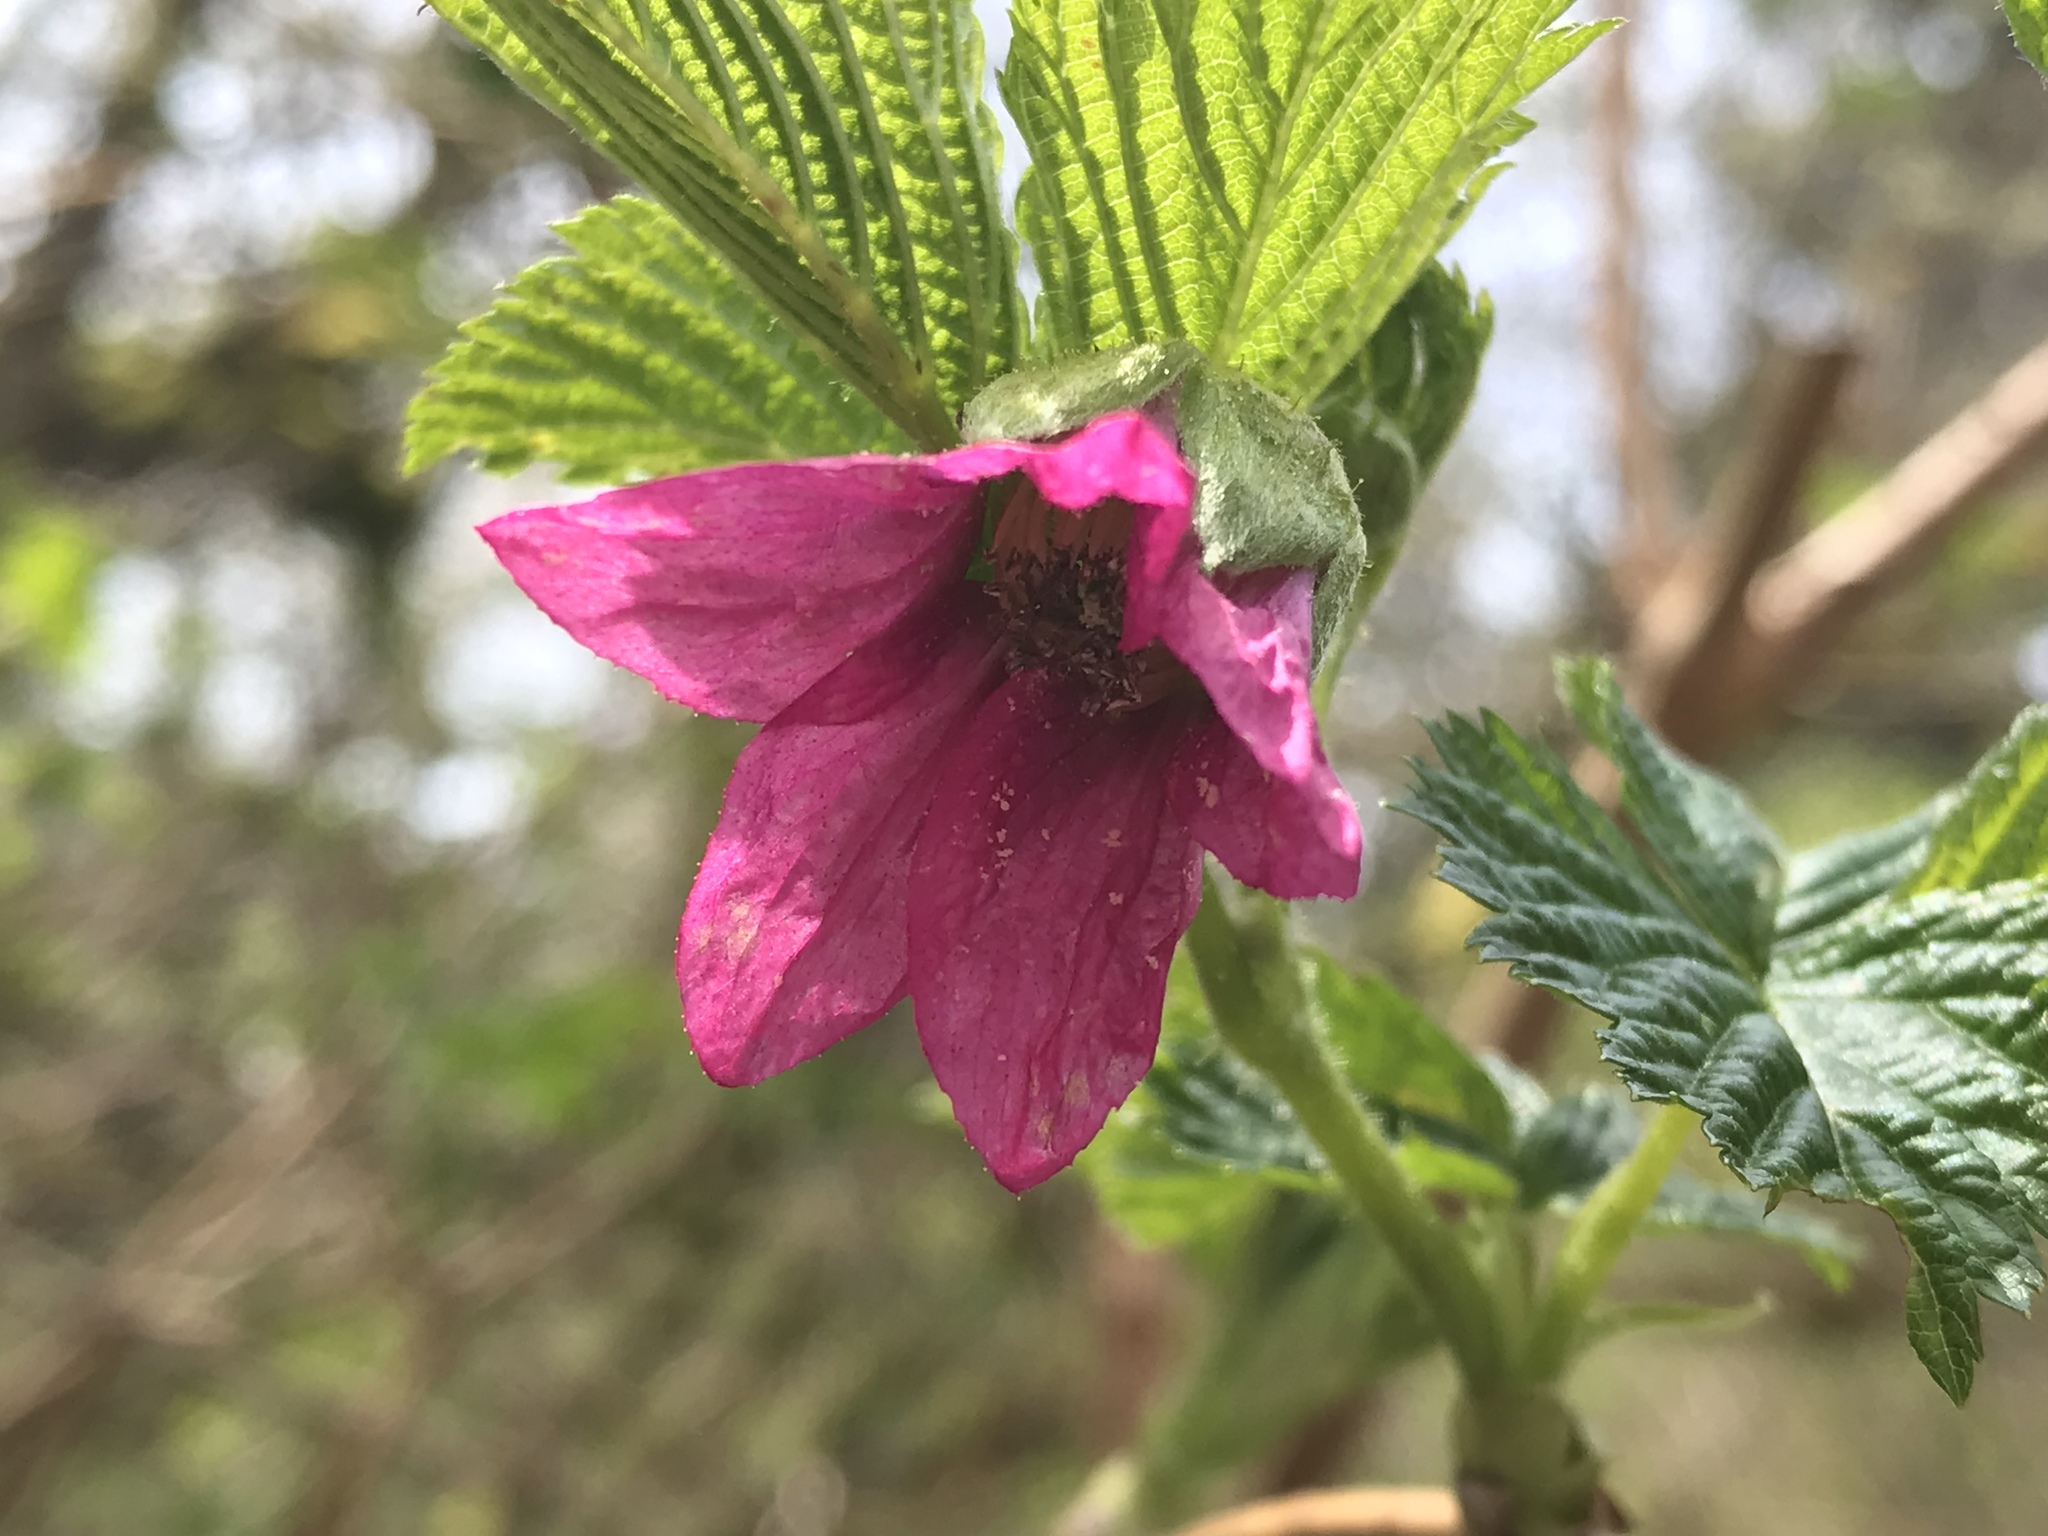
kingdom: Plantae
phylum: Tracheophyta
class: Magnoliopsida
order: Rosales
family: Rosaceae
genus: Rubus
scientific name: Rubus spectabilis
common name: Salmonberry
